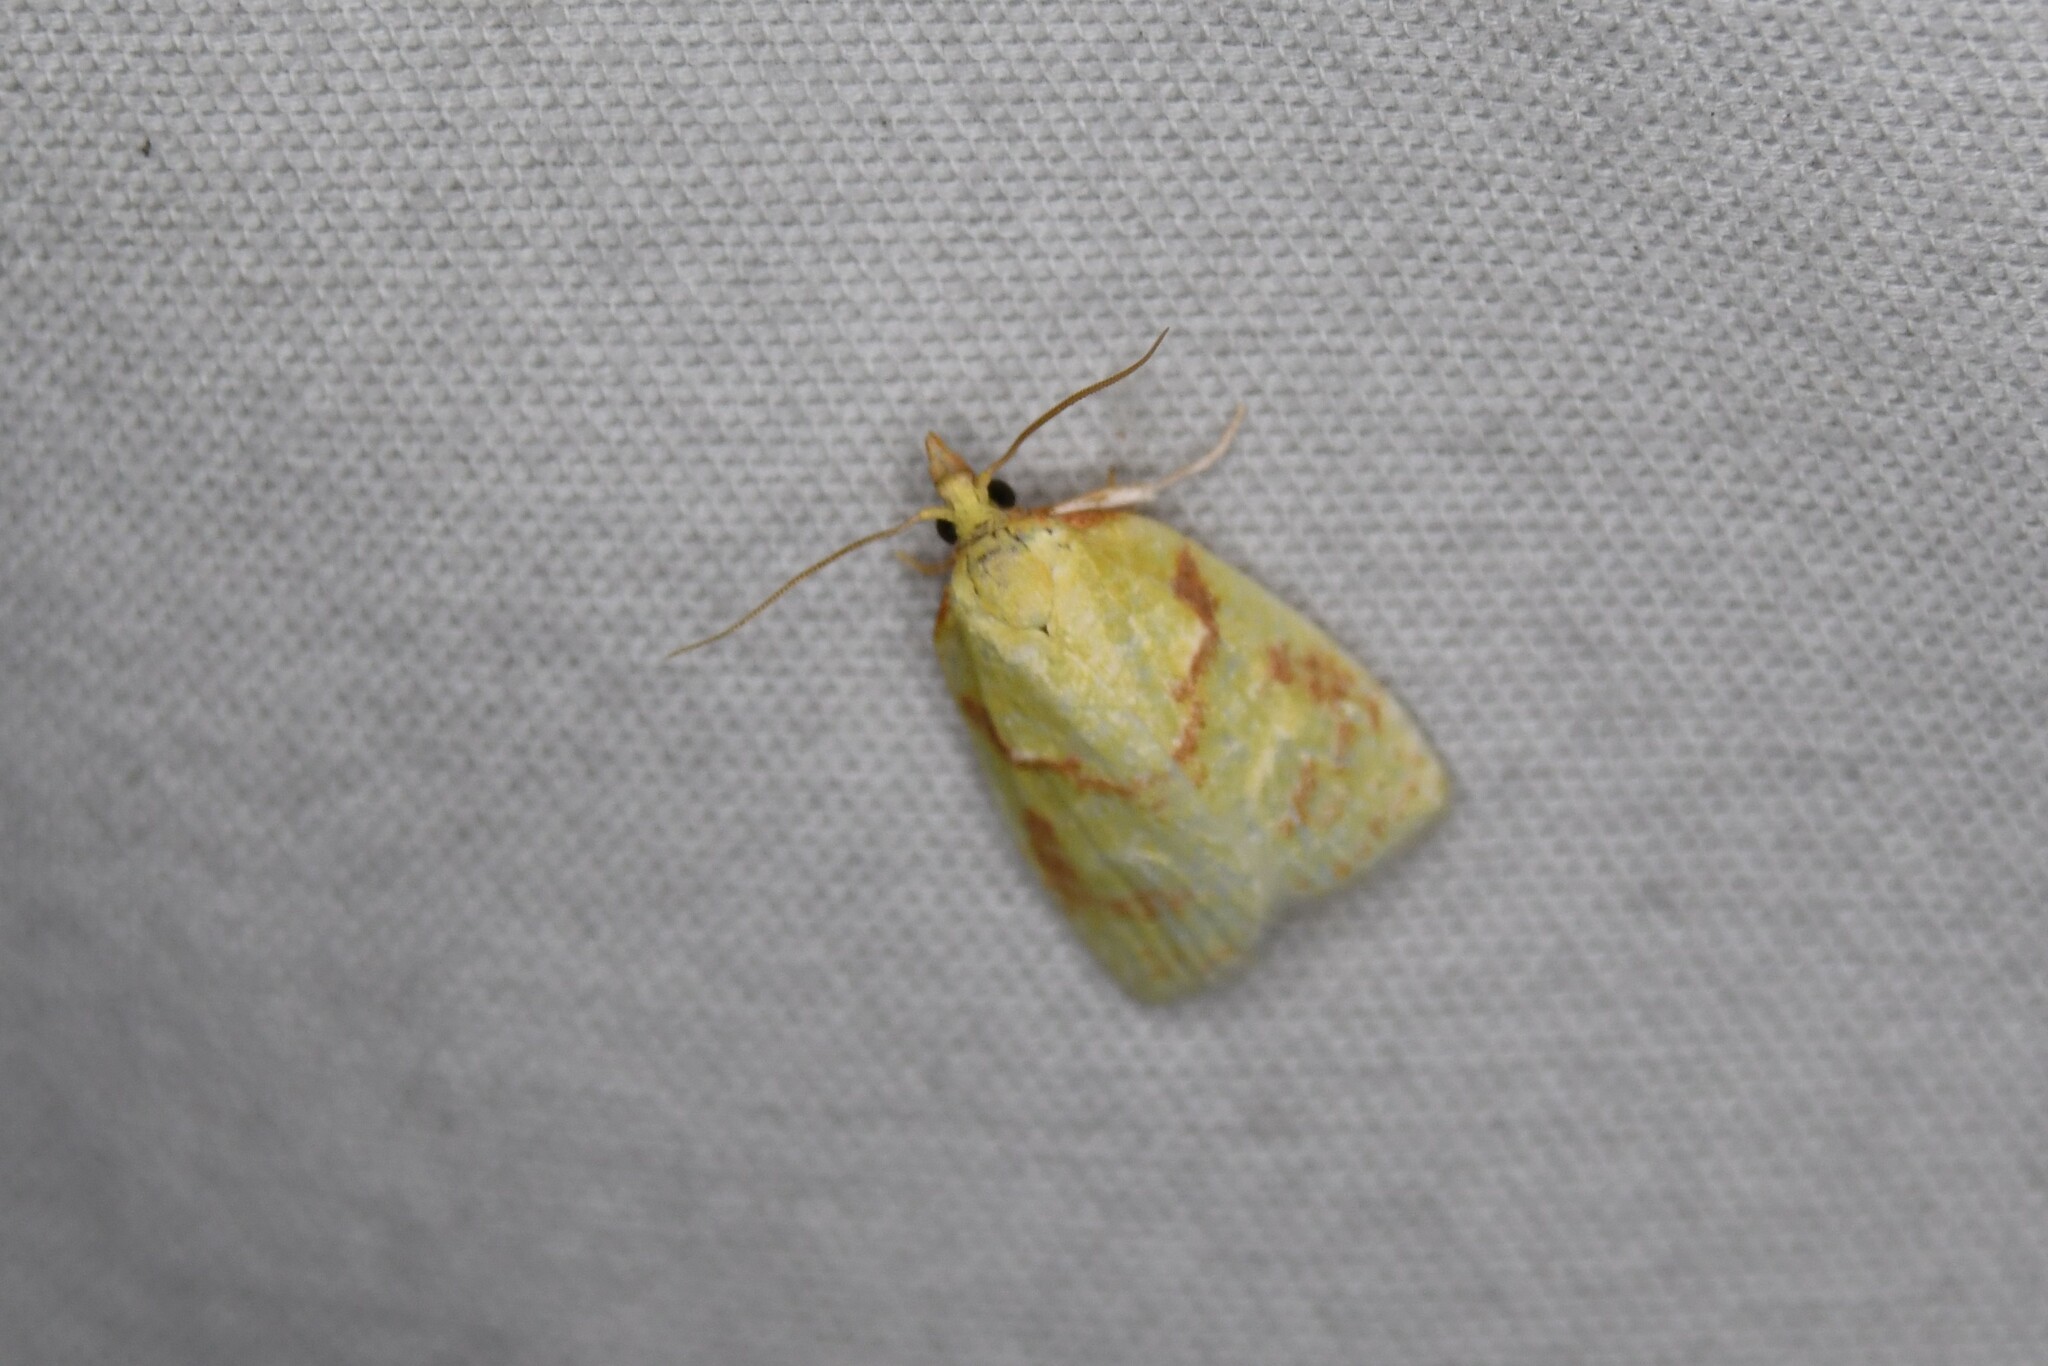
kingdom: Animalia
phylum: Arthropoda
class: Insecta
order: Lepidoptera
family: Tortricidae
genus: Cenopis
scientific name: Cenopis pettitana
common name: Maple-basswood leafroller moth
